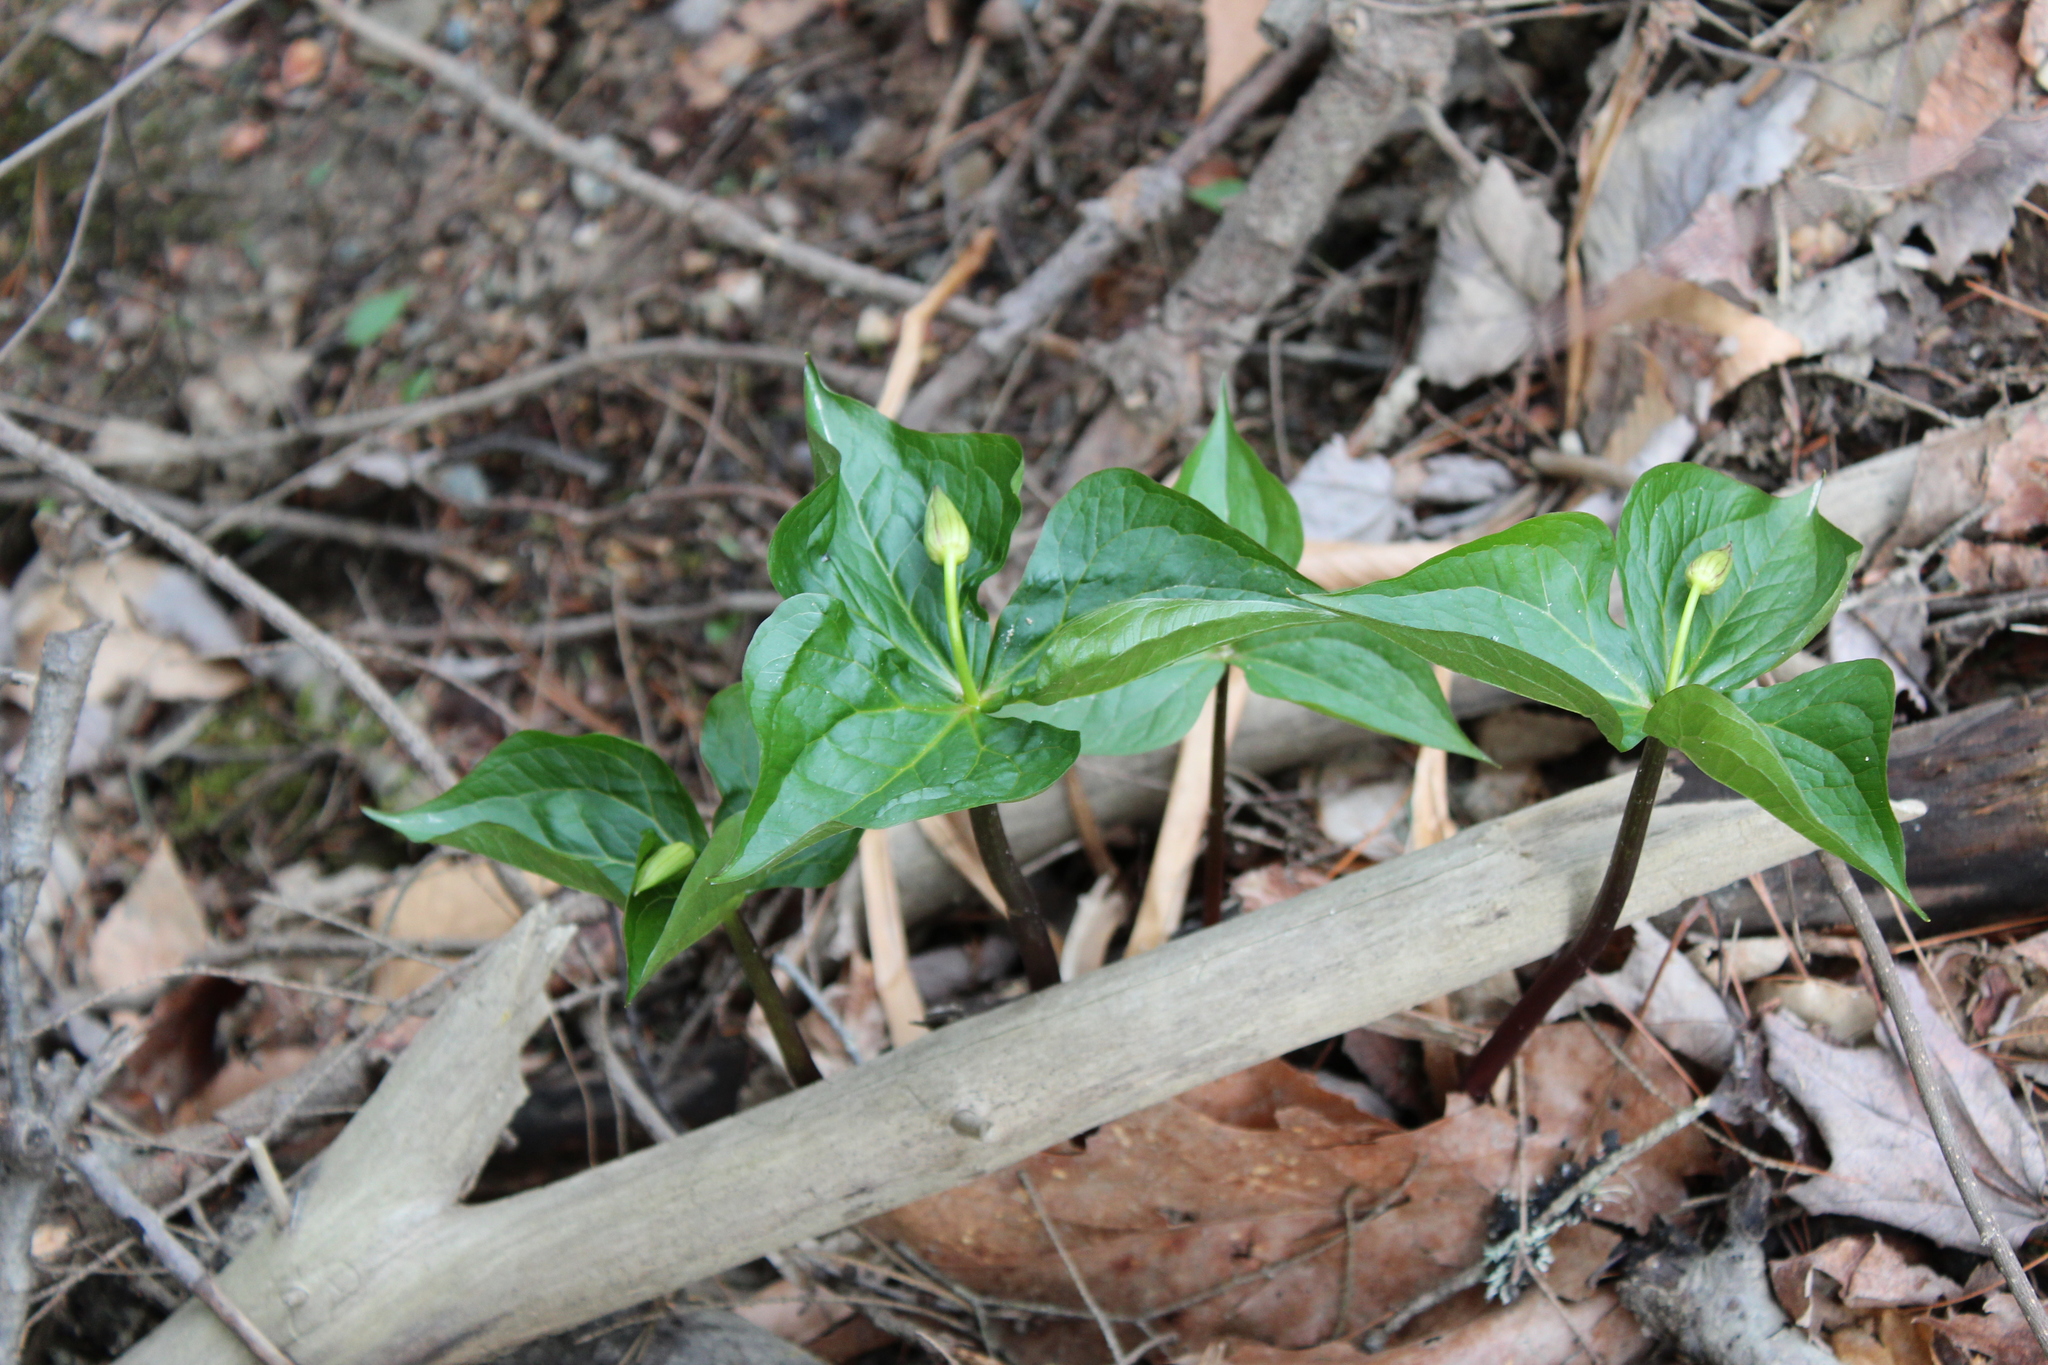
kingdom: Plantae
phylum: Tracheophyta
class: Liliopsida
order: Liliales
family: Melanthiaceae
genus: Trillium
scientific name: Trillium erectum
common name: Purple trillium
